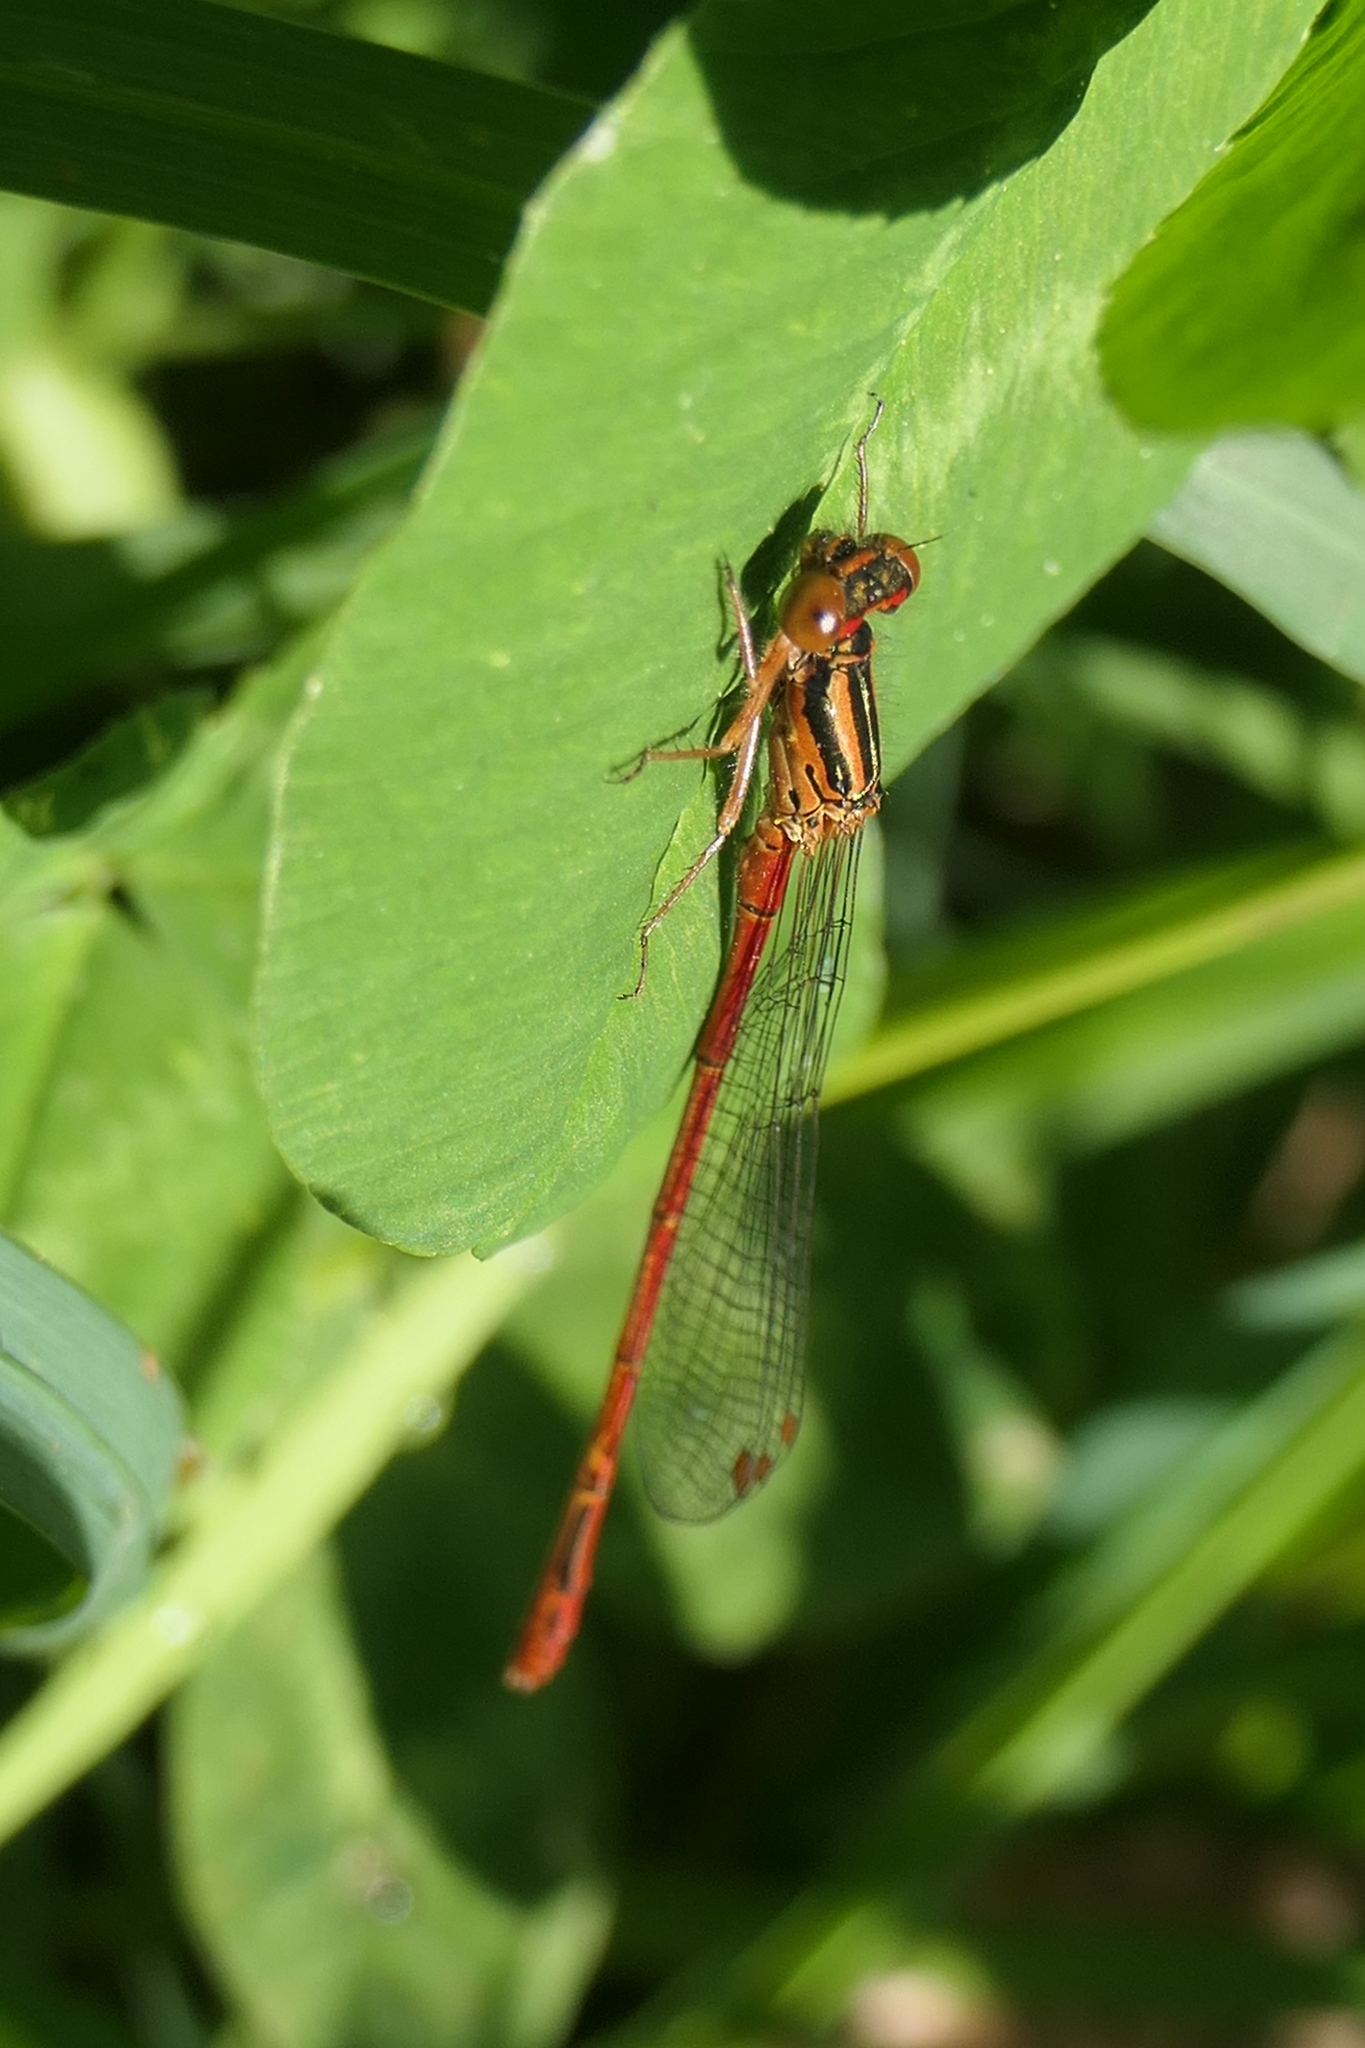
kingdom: Animalia
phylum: Arthropoda
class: Insecta
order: Odonata
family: Coenagrionidae
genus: Xanthocnemis
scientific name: Xanthocnemis zealandica
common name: Common redcoat damselfly
